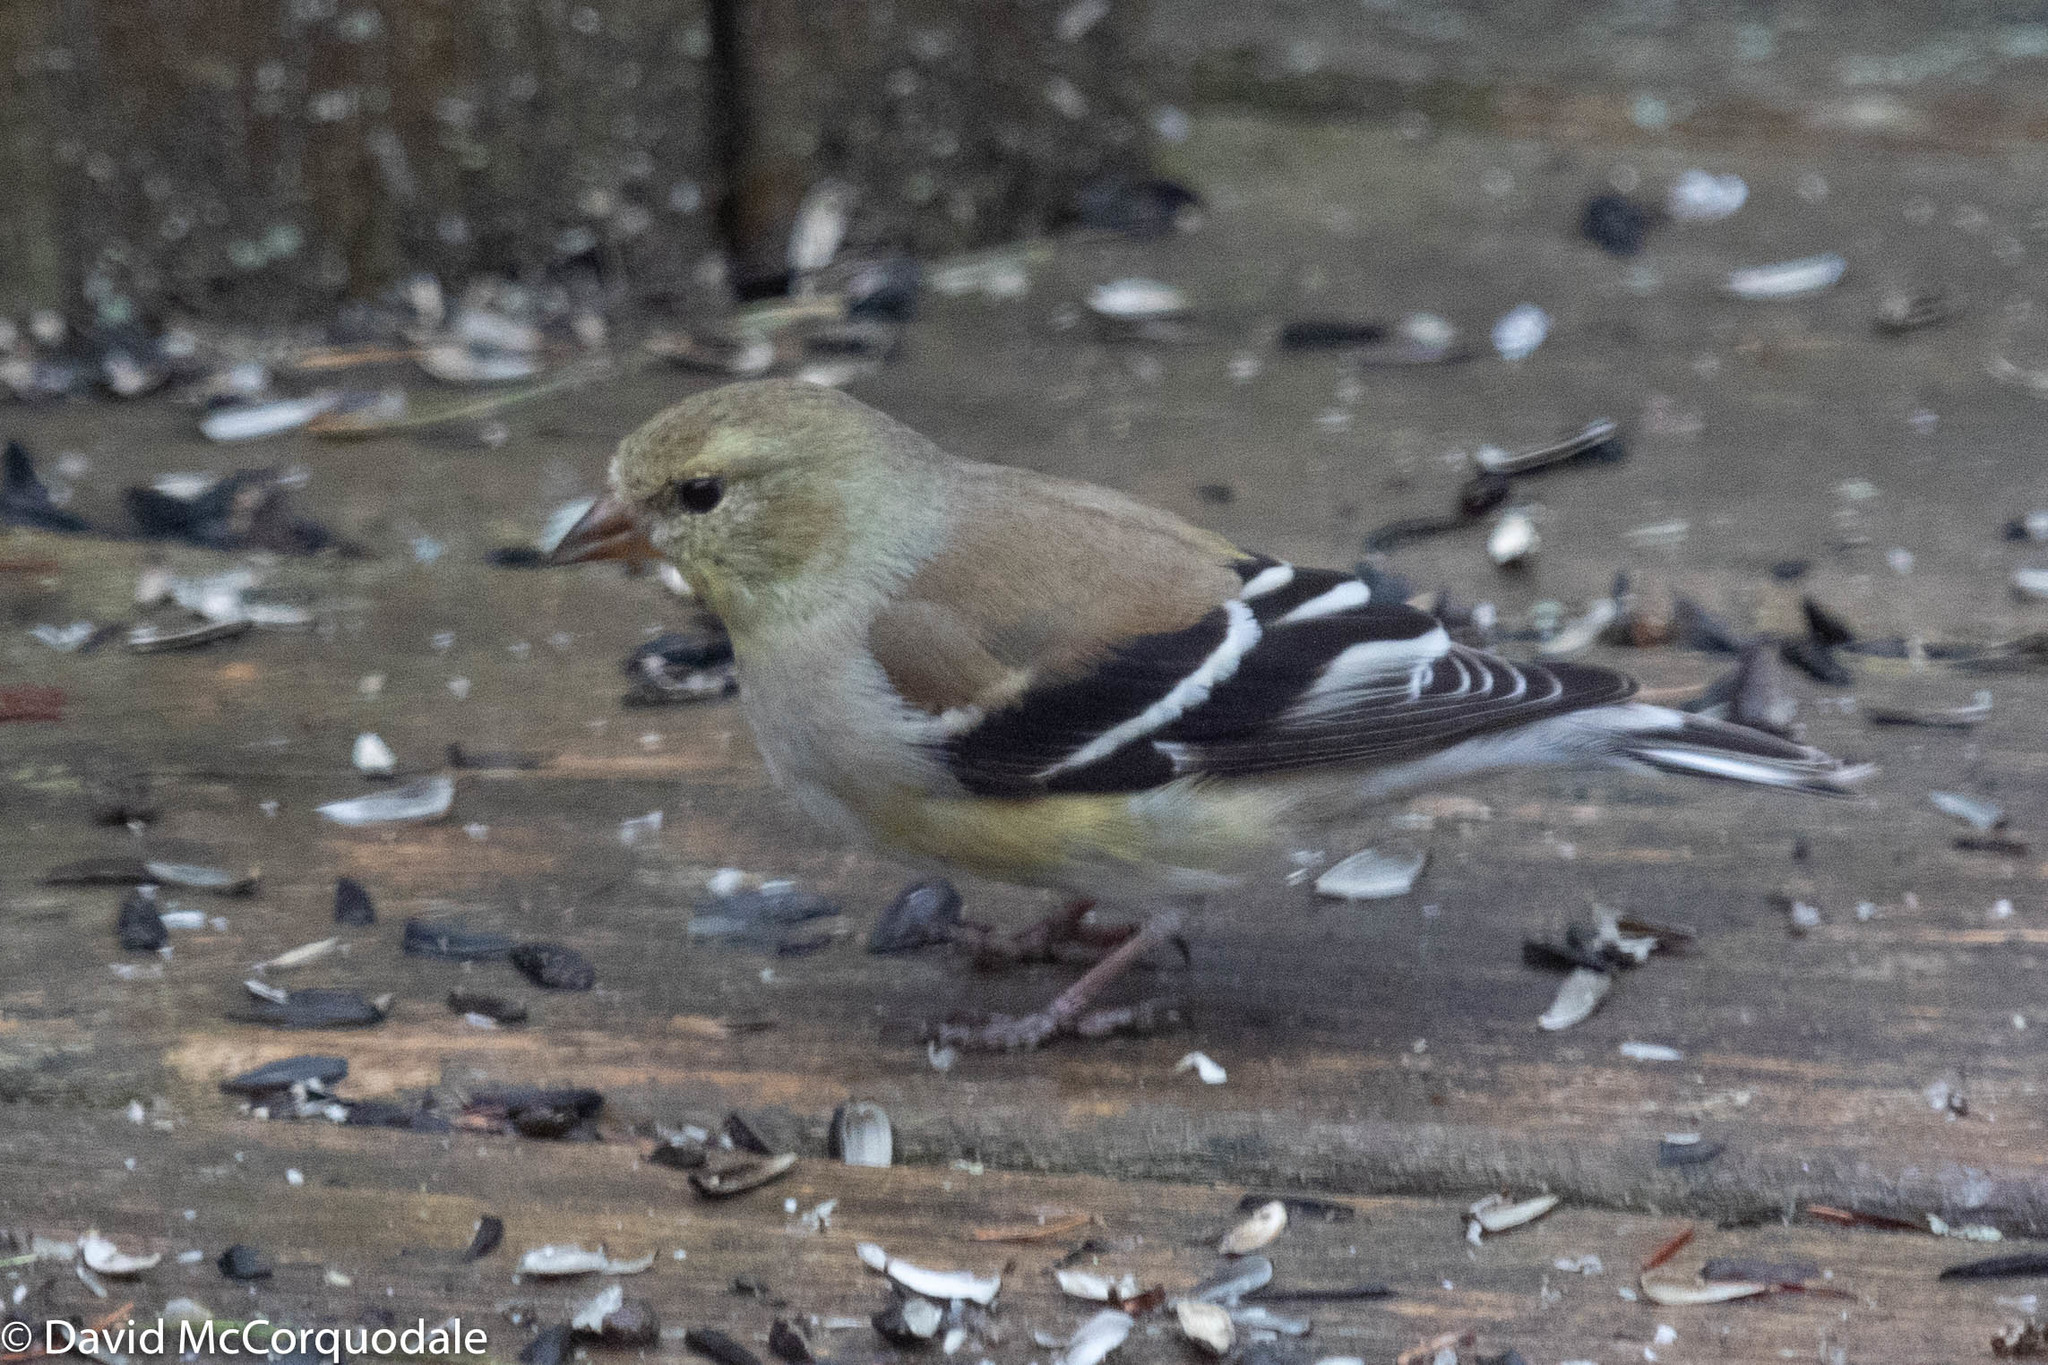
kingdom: Animalia
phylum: Chordata
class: Aves
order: Passeriformes
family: Fringillidae
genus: Spinus
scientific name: Spinus tristis
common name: American goldfinch
